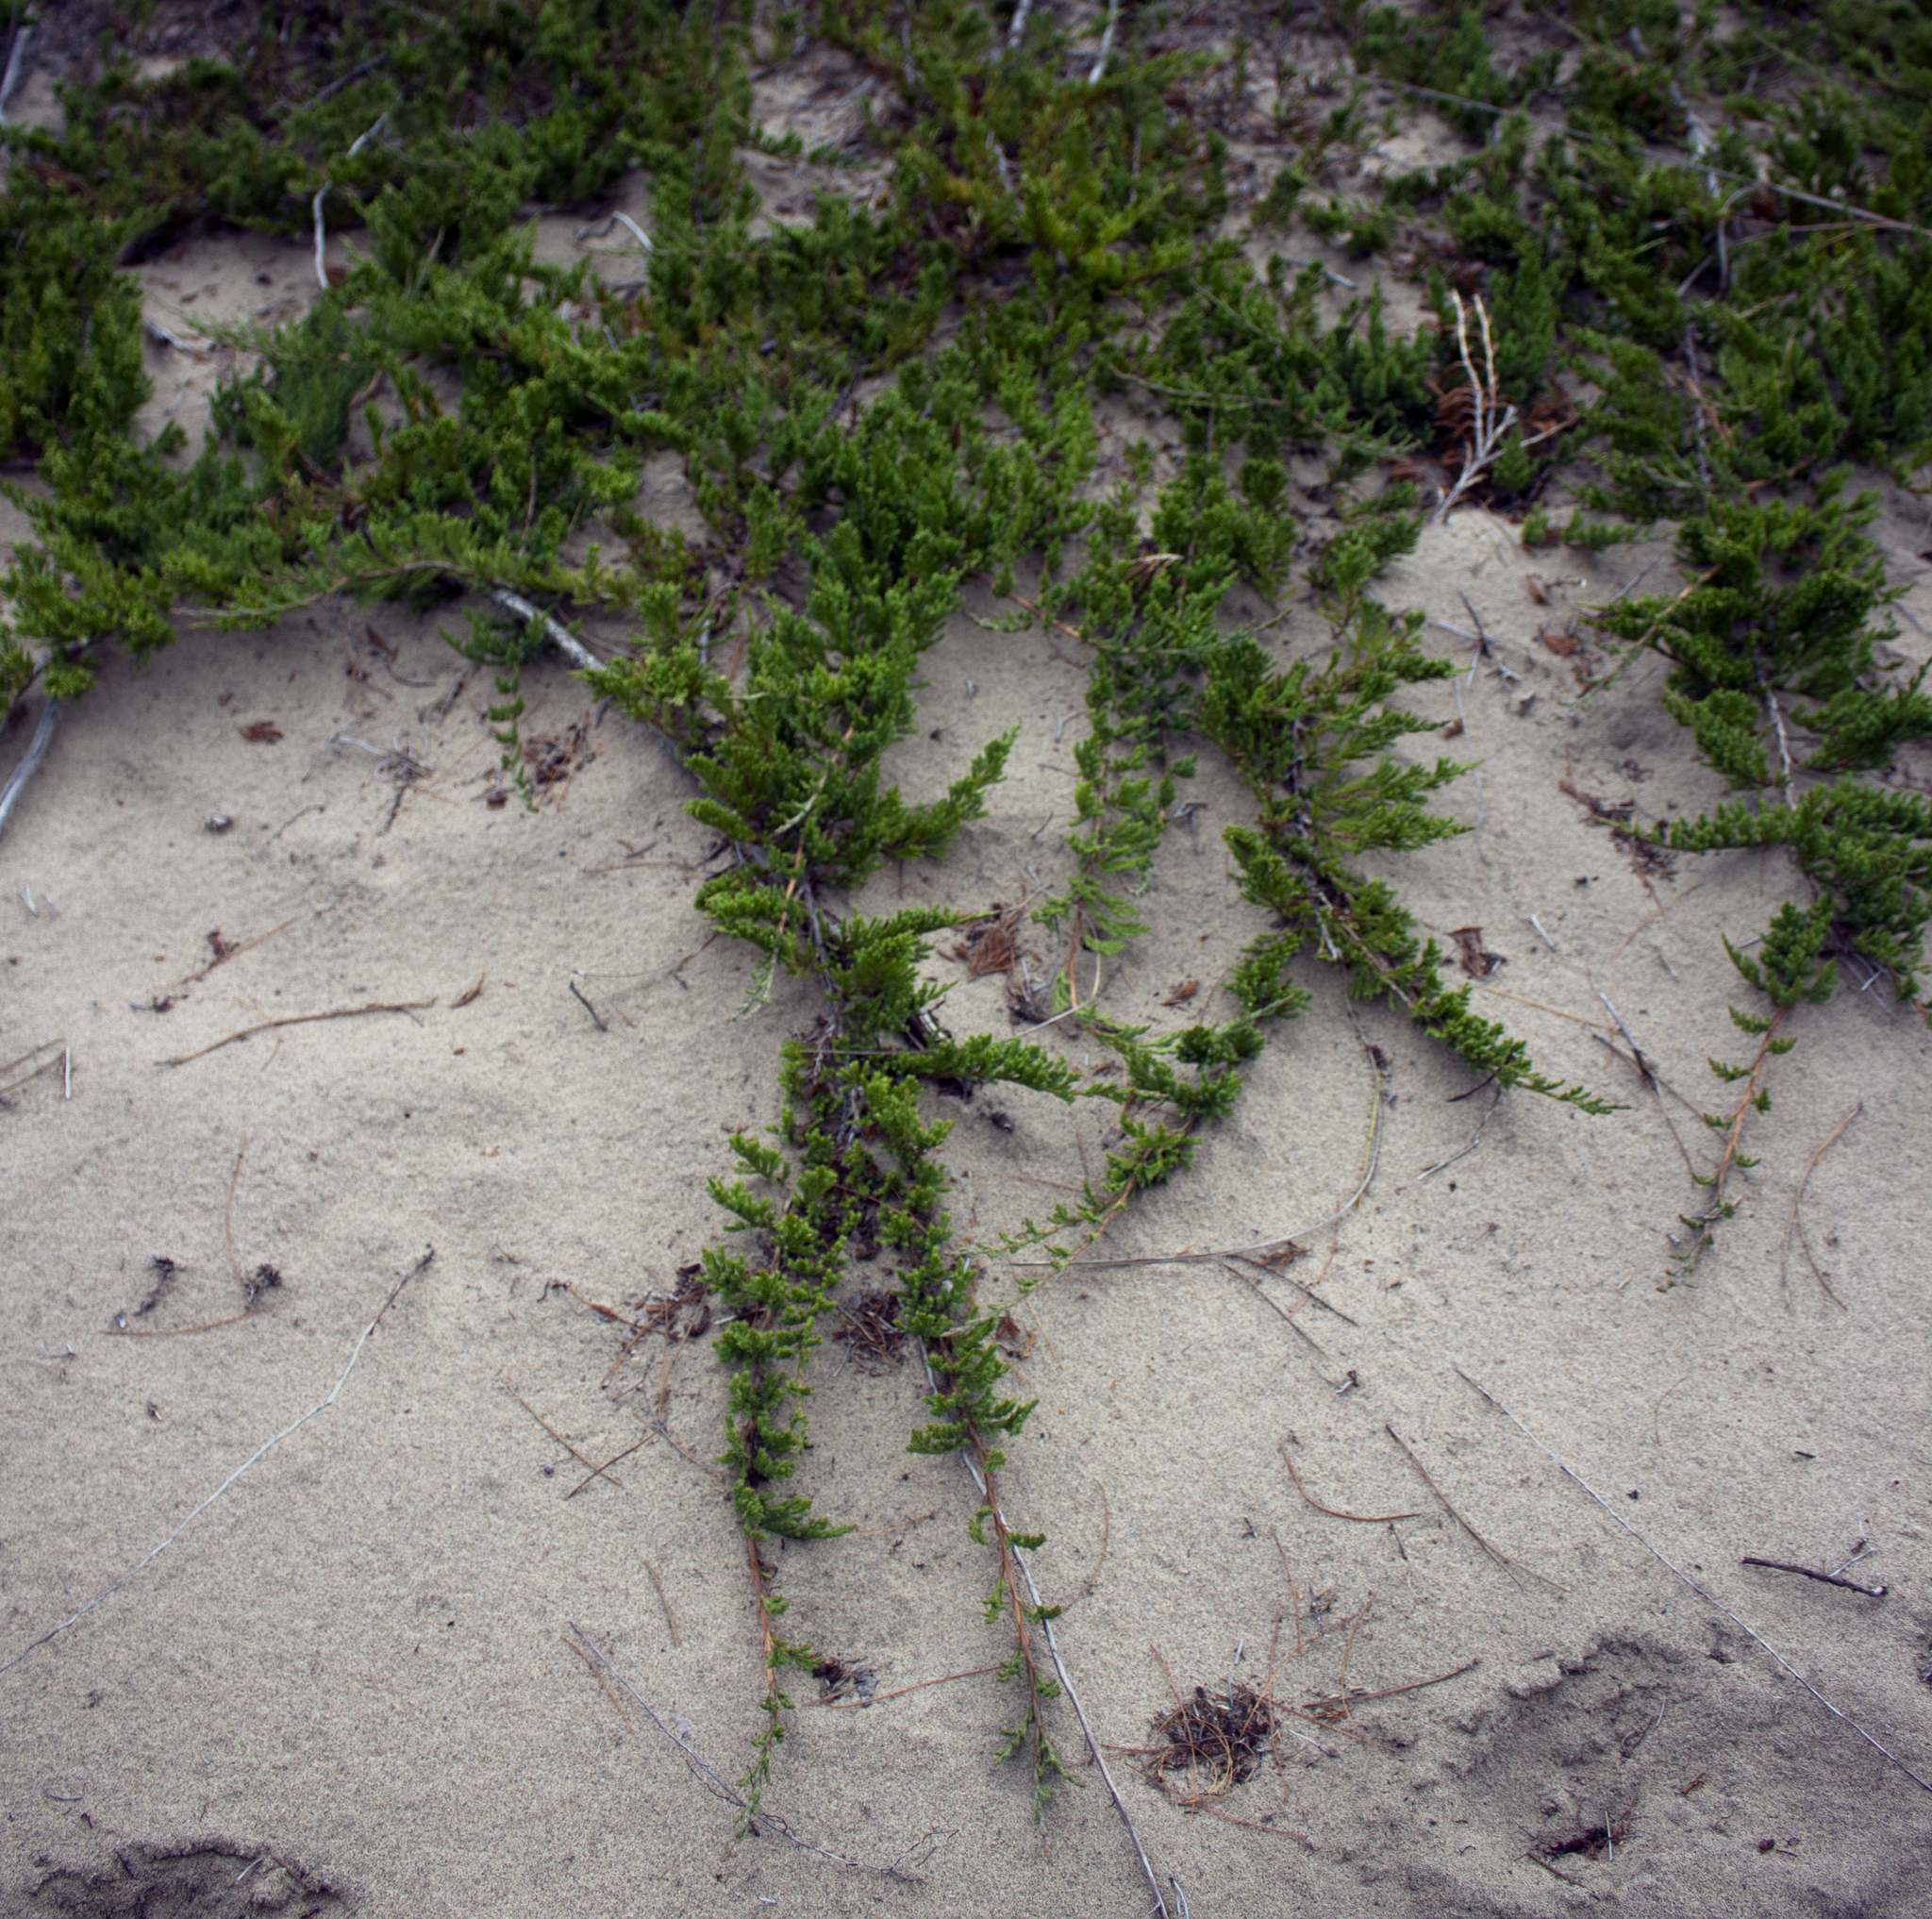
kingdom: Plantae
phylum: Tracheophyta
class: Pinopsida
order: Pinales
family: Cupressaceae
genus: Juniperus
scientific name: Juniperus horizontalis
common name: Creeping juniper
